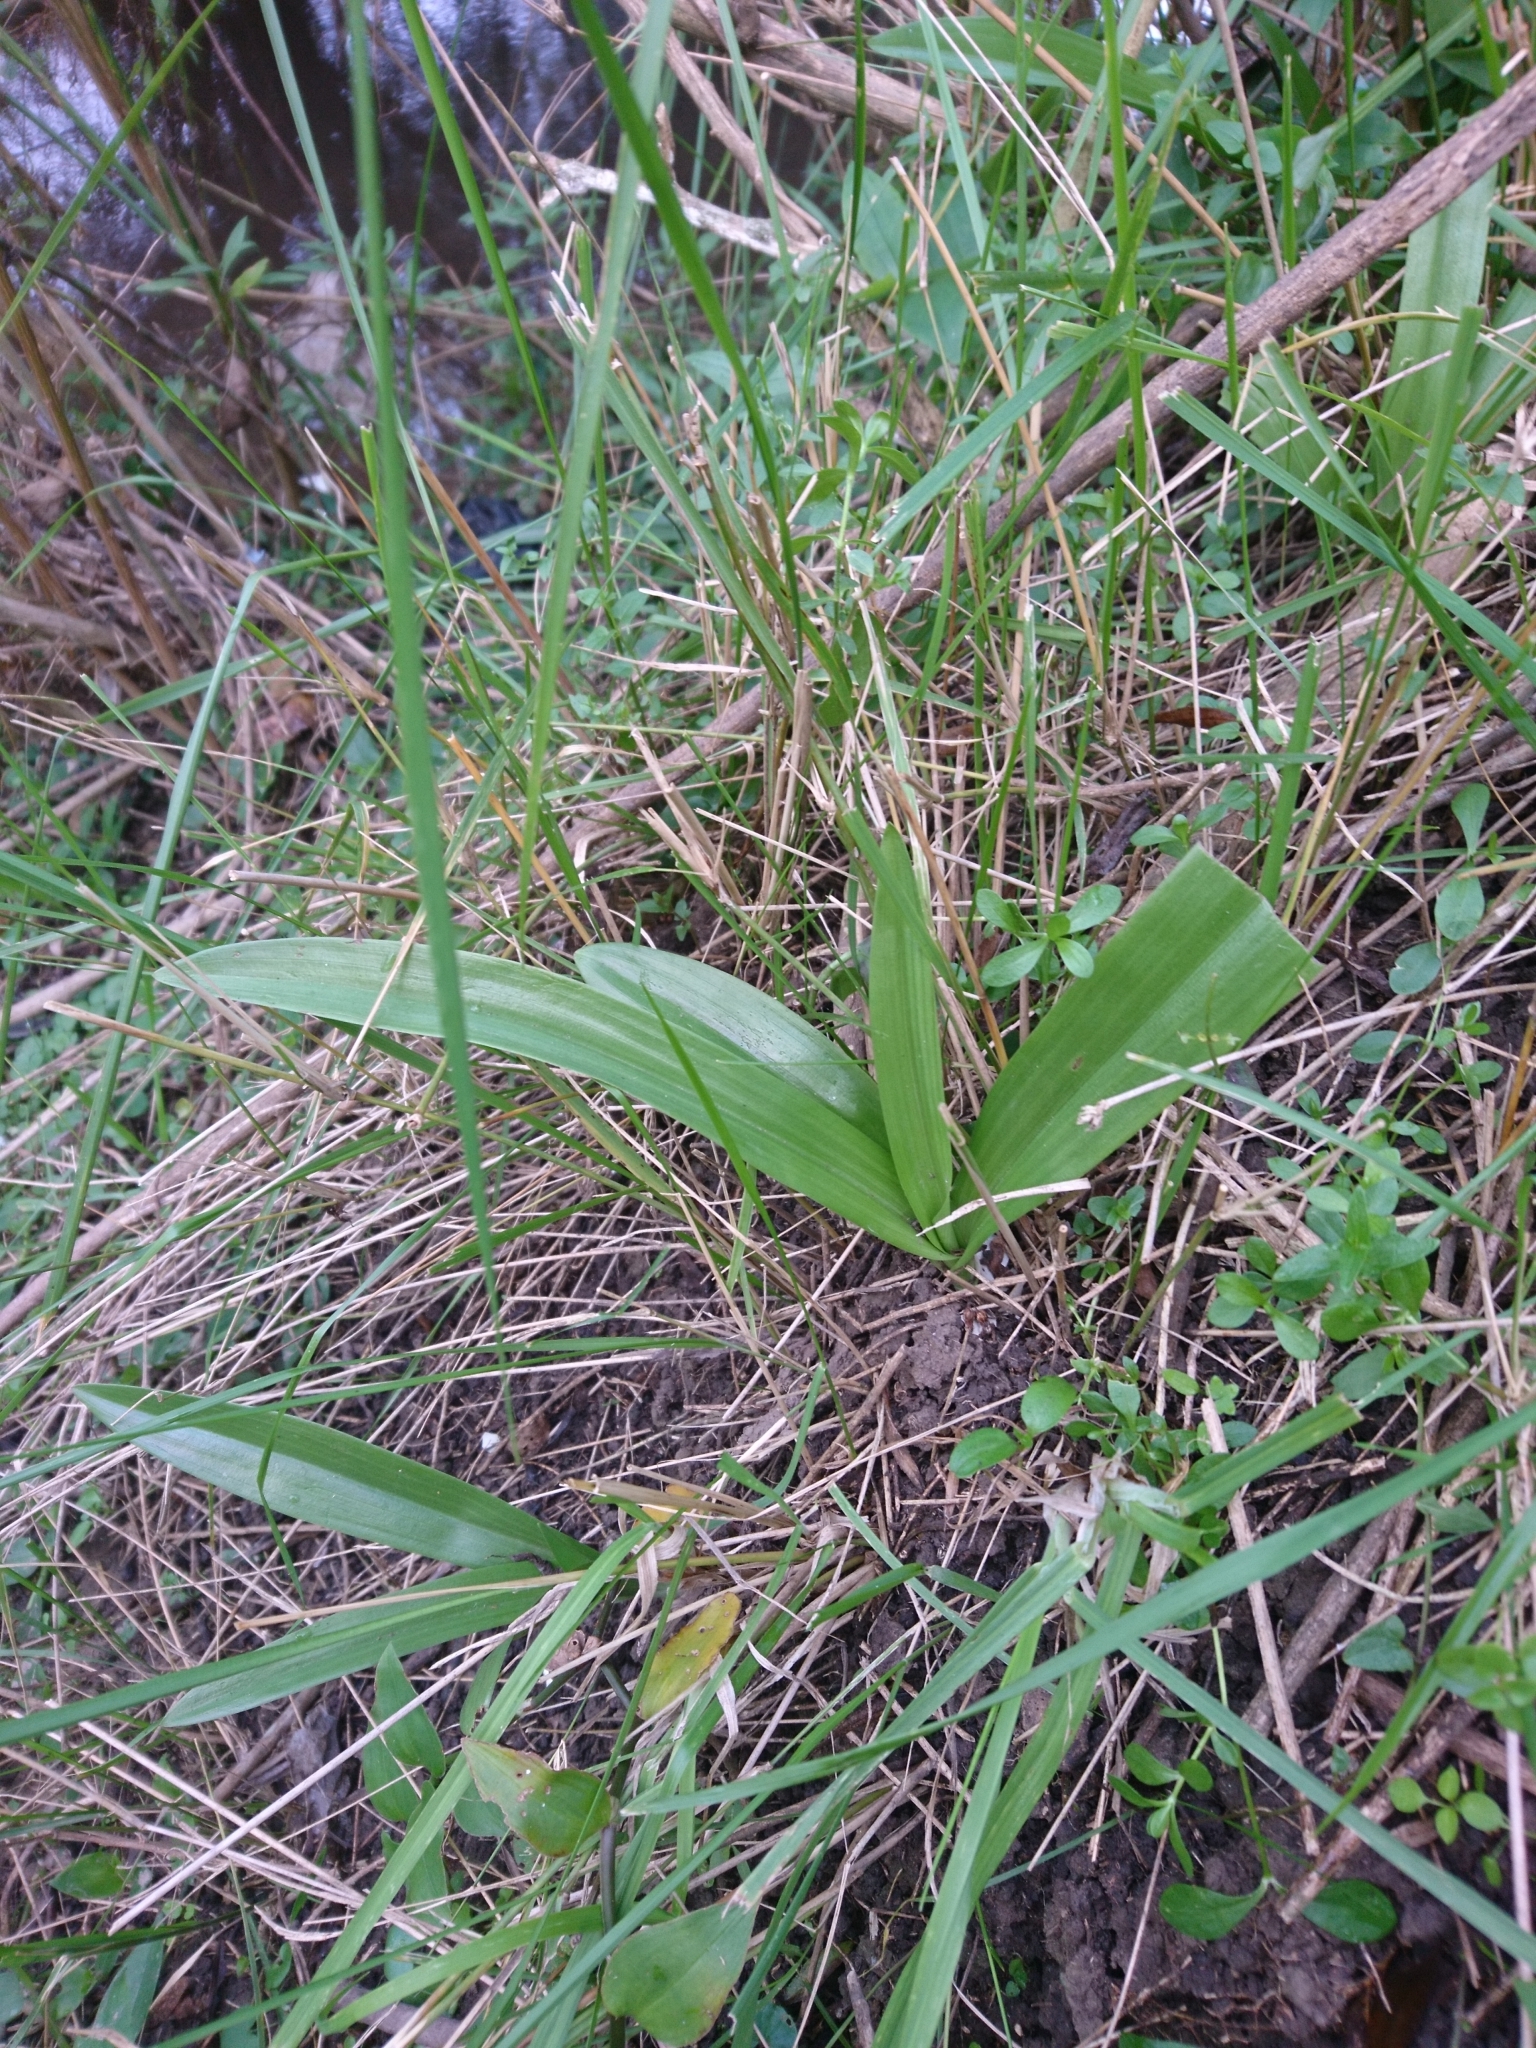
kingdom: Plantae
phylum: Tracheophyta
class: Liliopsida
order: Asparagales
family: Orchidaceae
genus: Chloraea
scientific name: Chloraea membranacea
